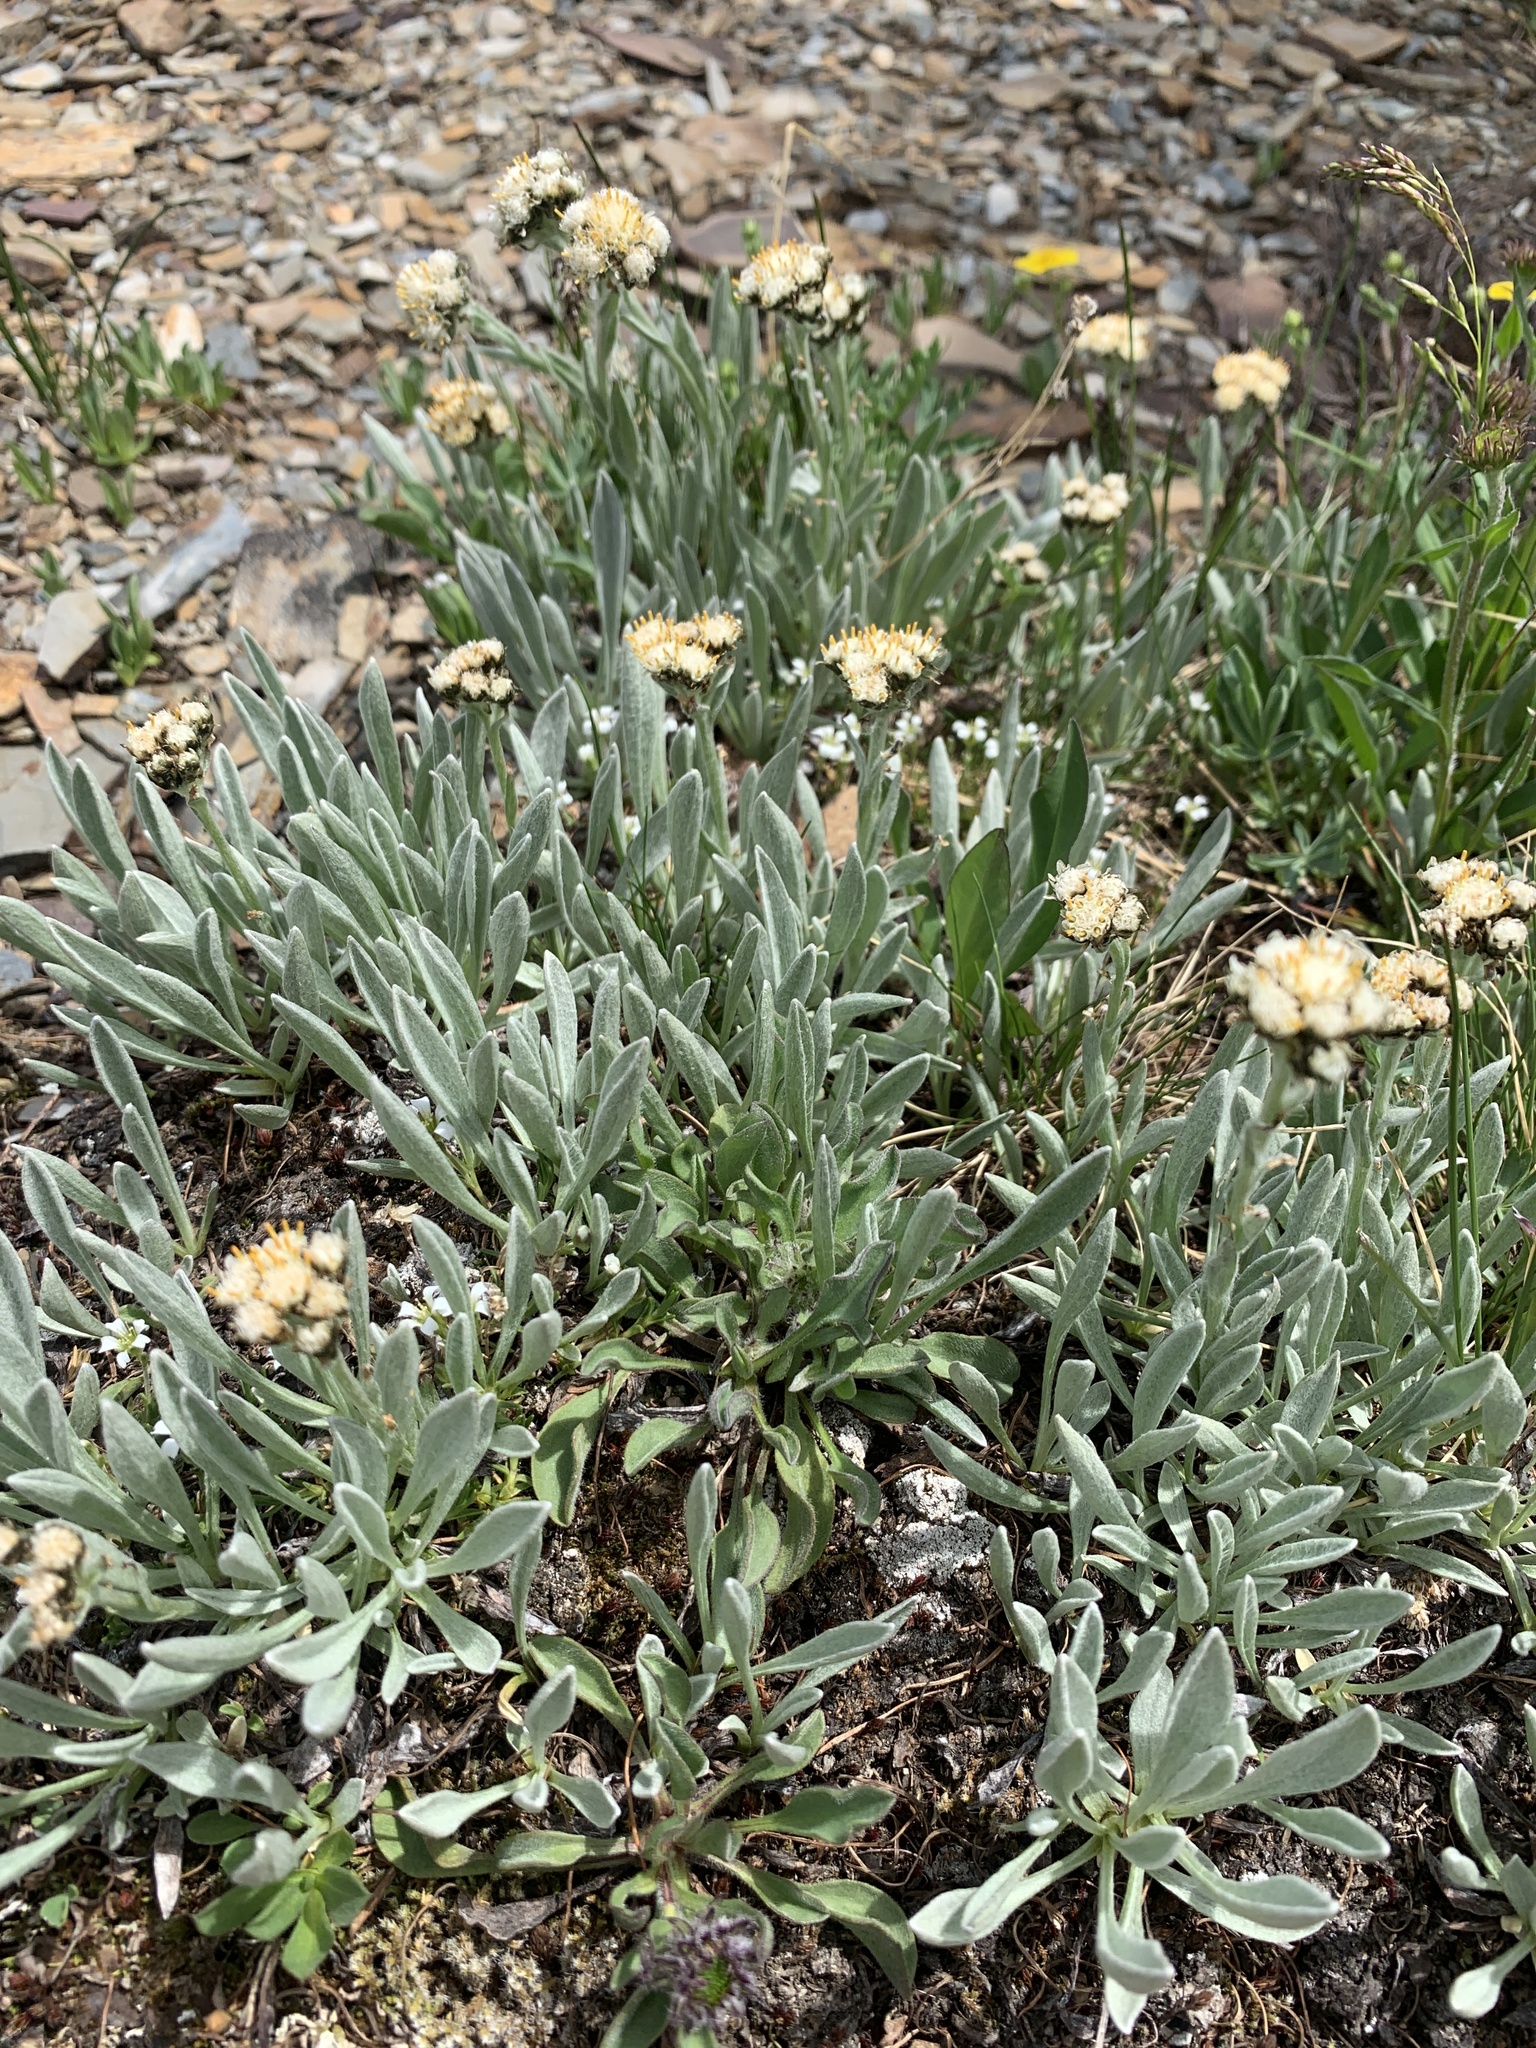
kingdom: Plantae
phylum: Tracheophyta
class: Magnoliopsida
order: Asterales
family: Asteraceae
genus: Antennaria
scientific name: Antennaria lanata
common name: Woolly pussytoes
